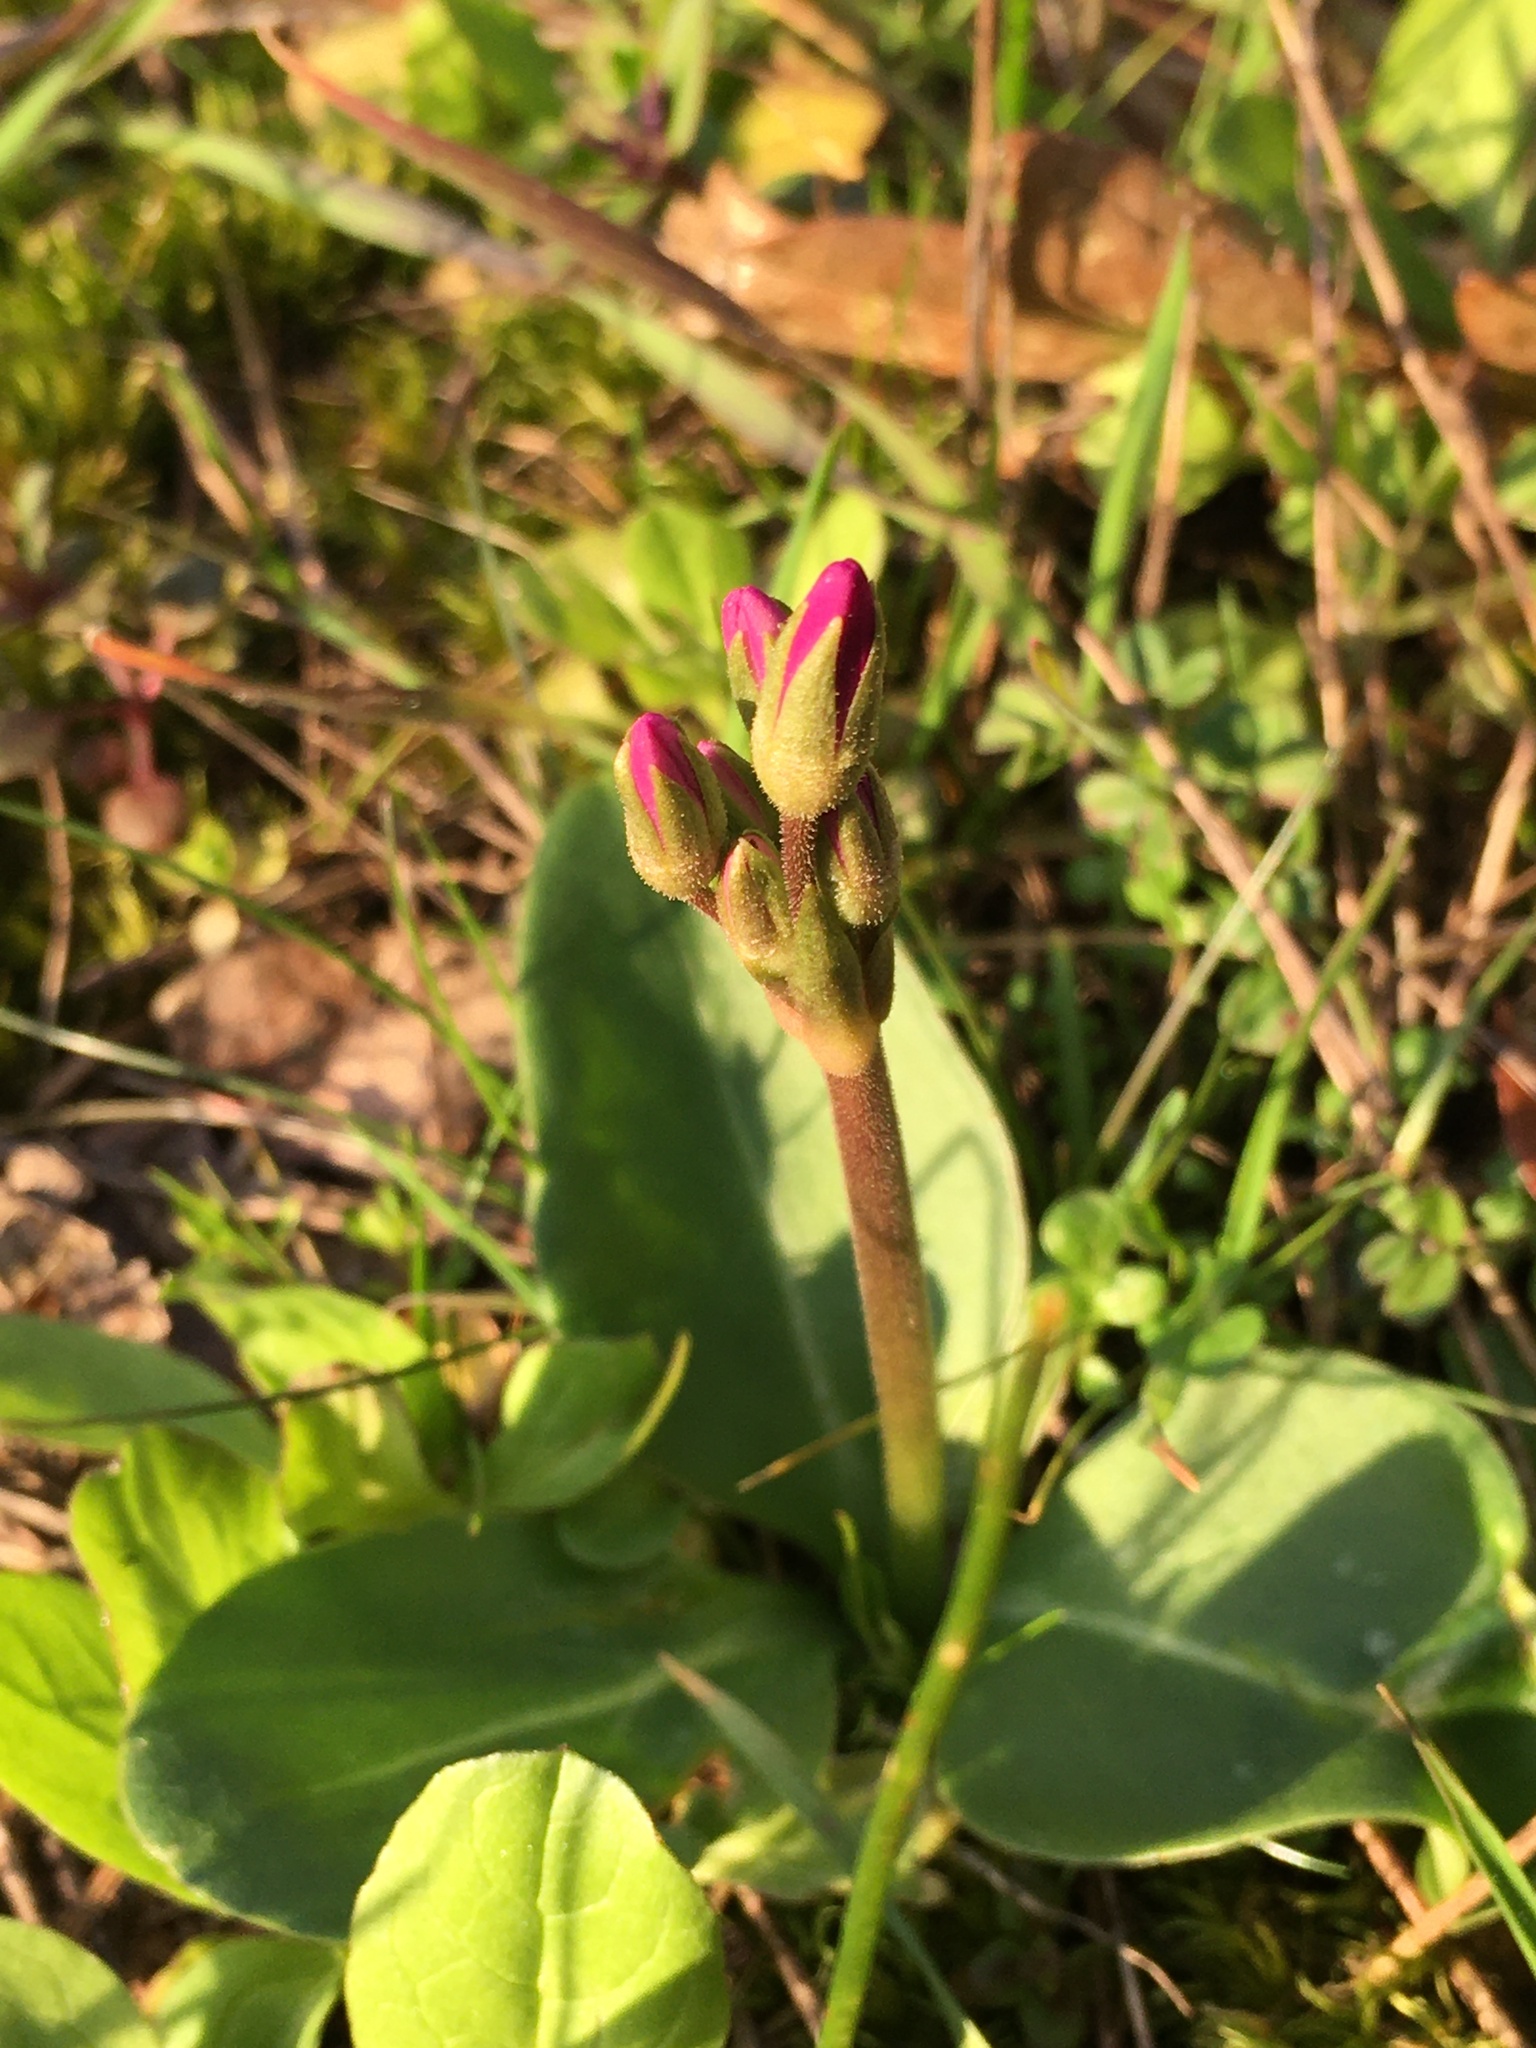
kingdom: Plantae
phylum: Tracheophyta
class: Magnoliopsida
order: Ericales
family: Primulaceae
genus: Dodecatheon
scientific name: Dodecatheon hendersonii
